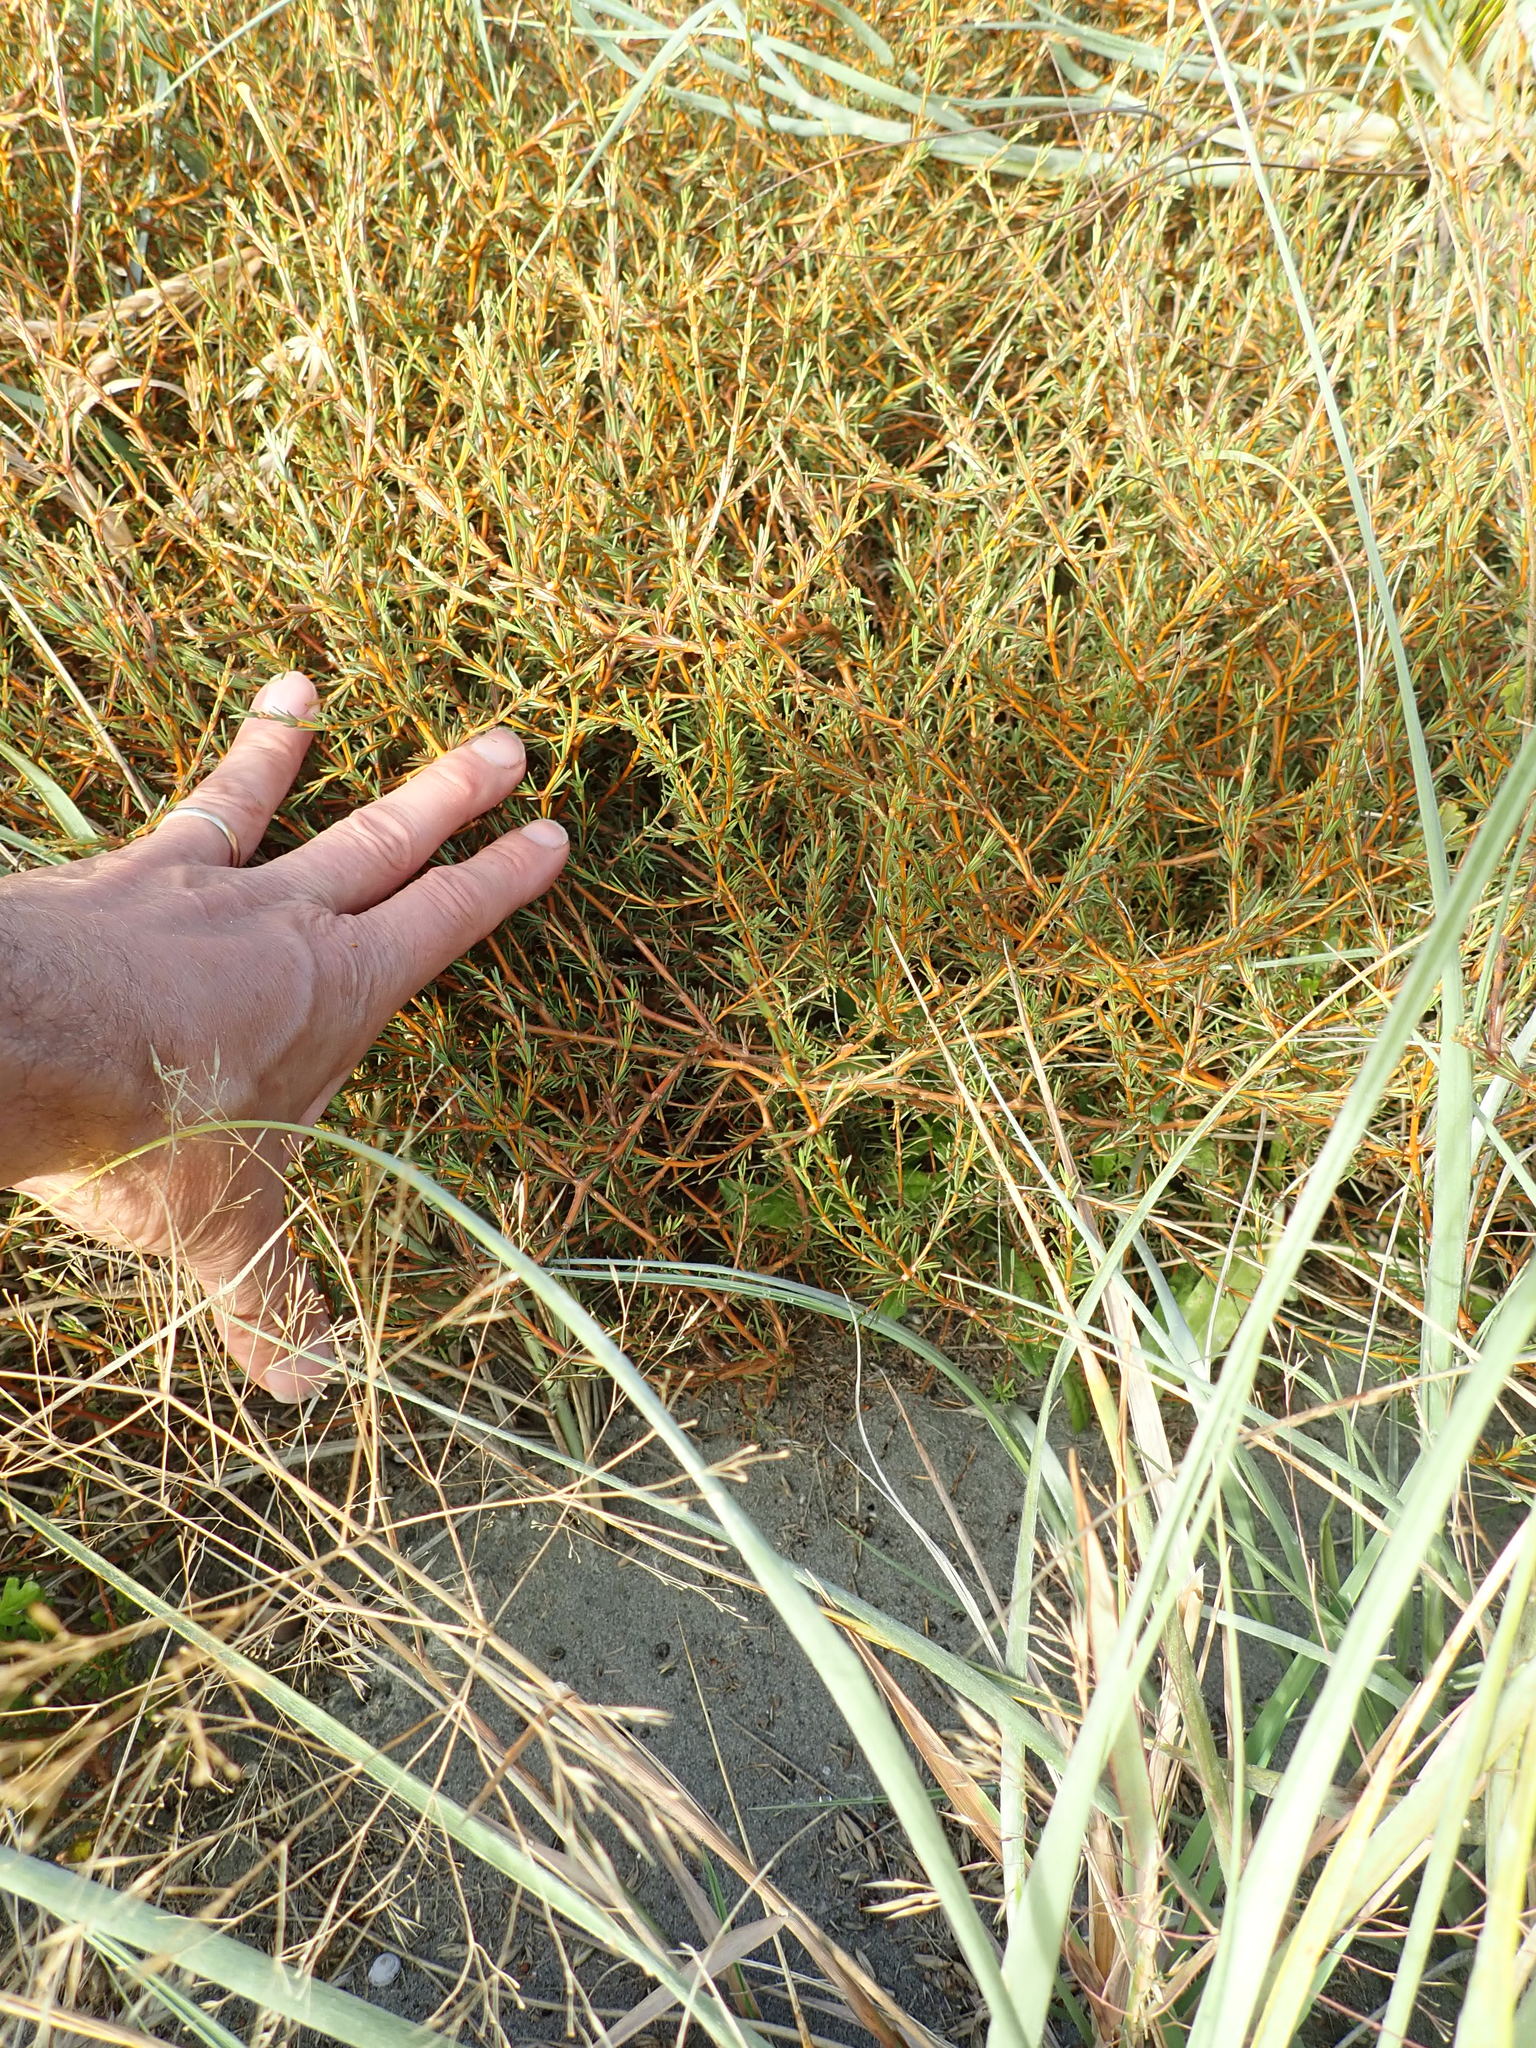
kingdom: Plantae
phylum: Tracheophyta
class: Magnoliopsida
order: Gentianales
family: Rubiaceae
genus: Coprosma
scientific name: Coprosma acerosa
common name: Sand coprosma
